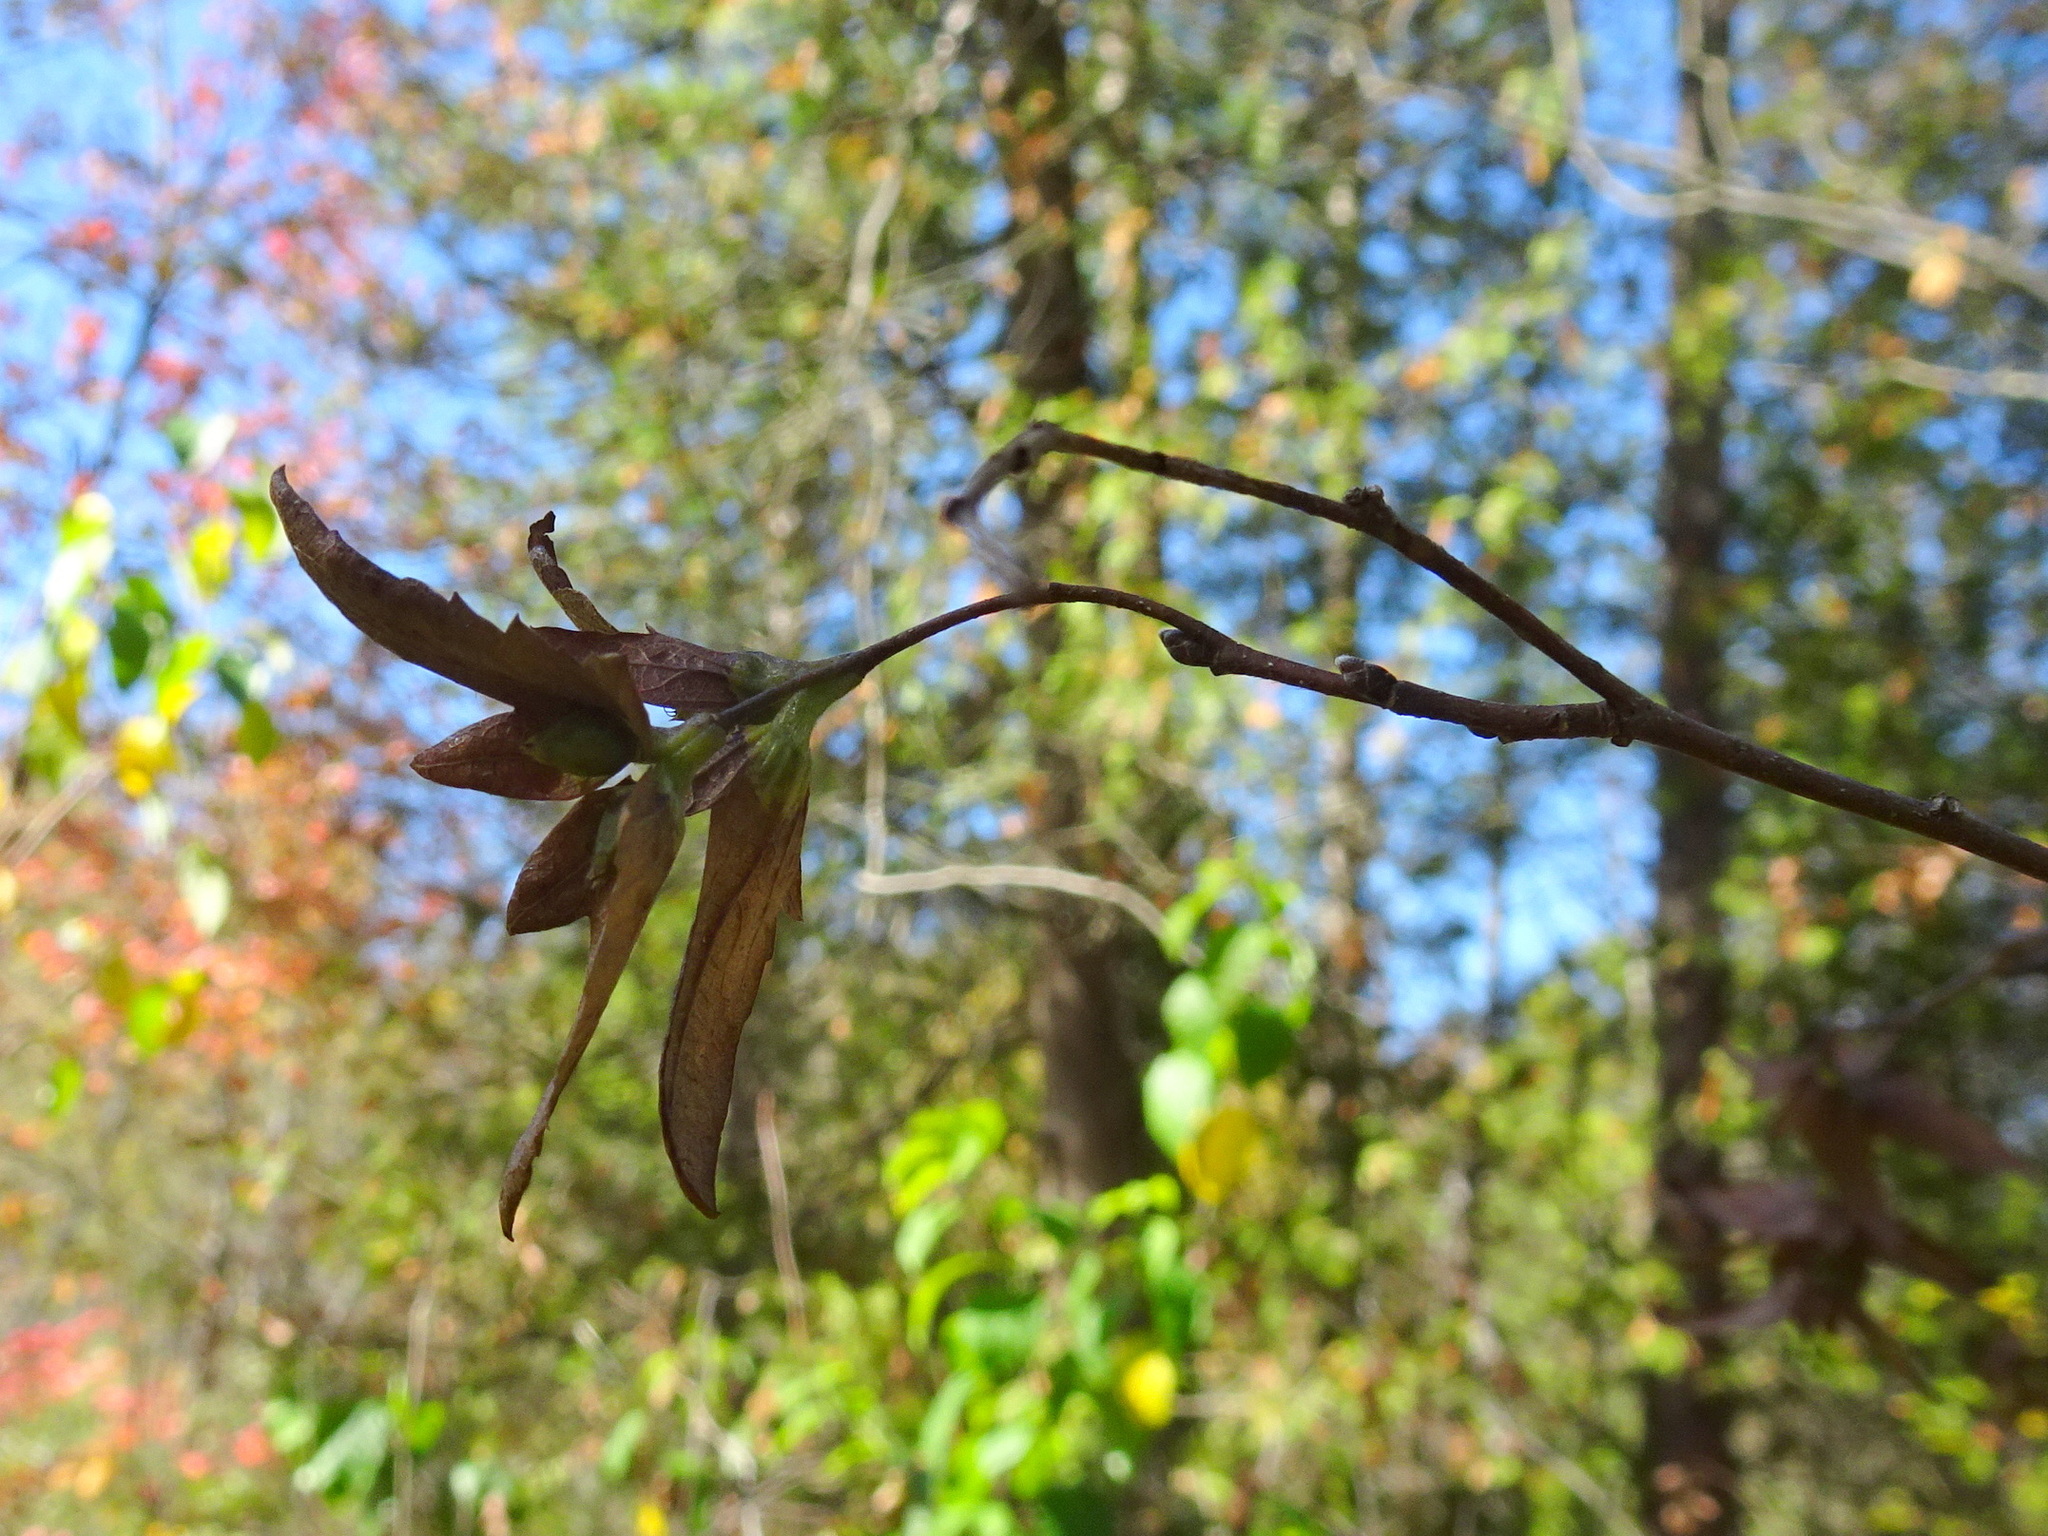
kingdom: Plantae
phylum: Tracheophyta
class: Magnoliopsida
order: Fagales
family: Betulaceae
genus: Carpinus
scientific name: Carpinus caroliniana
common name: American hornbeam
